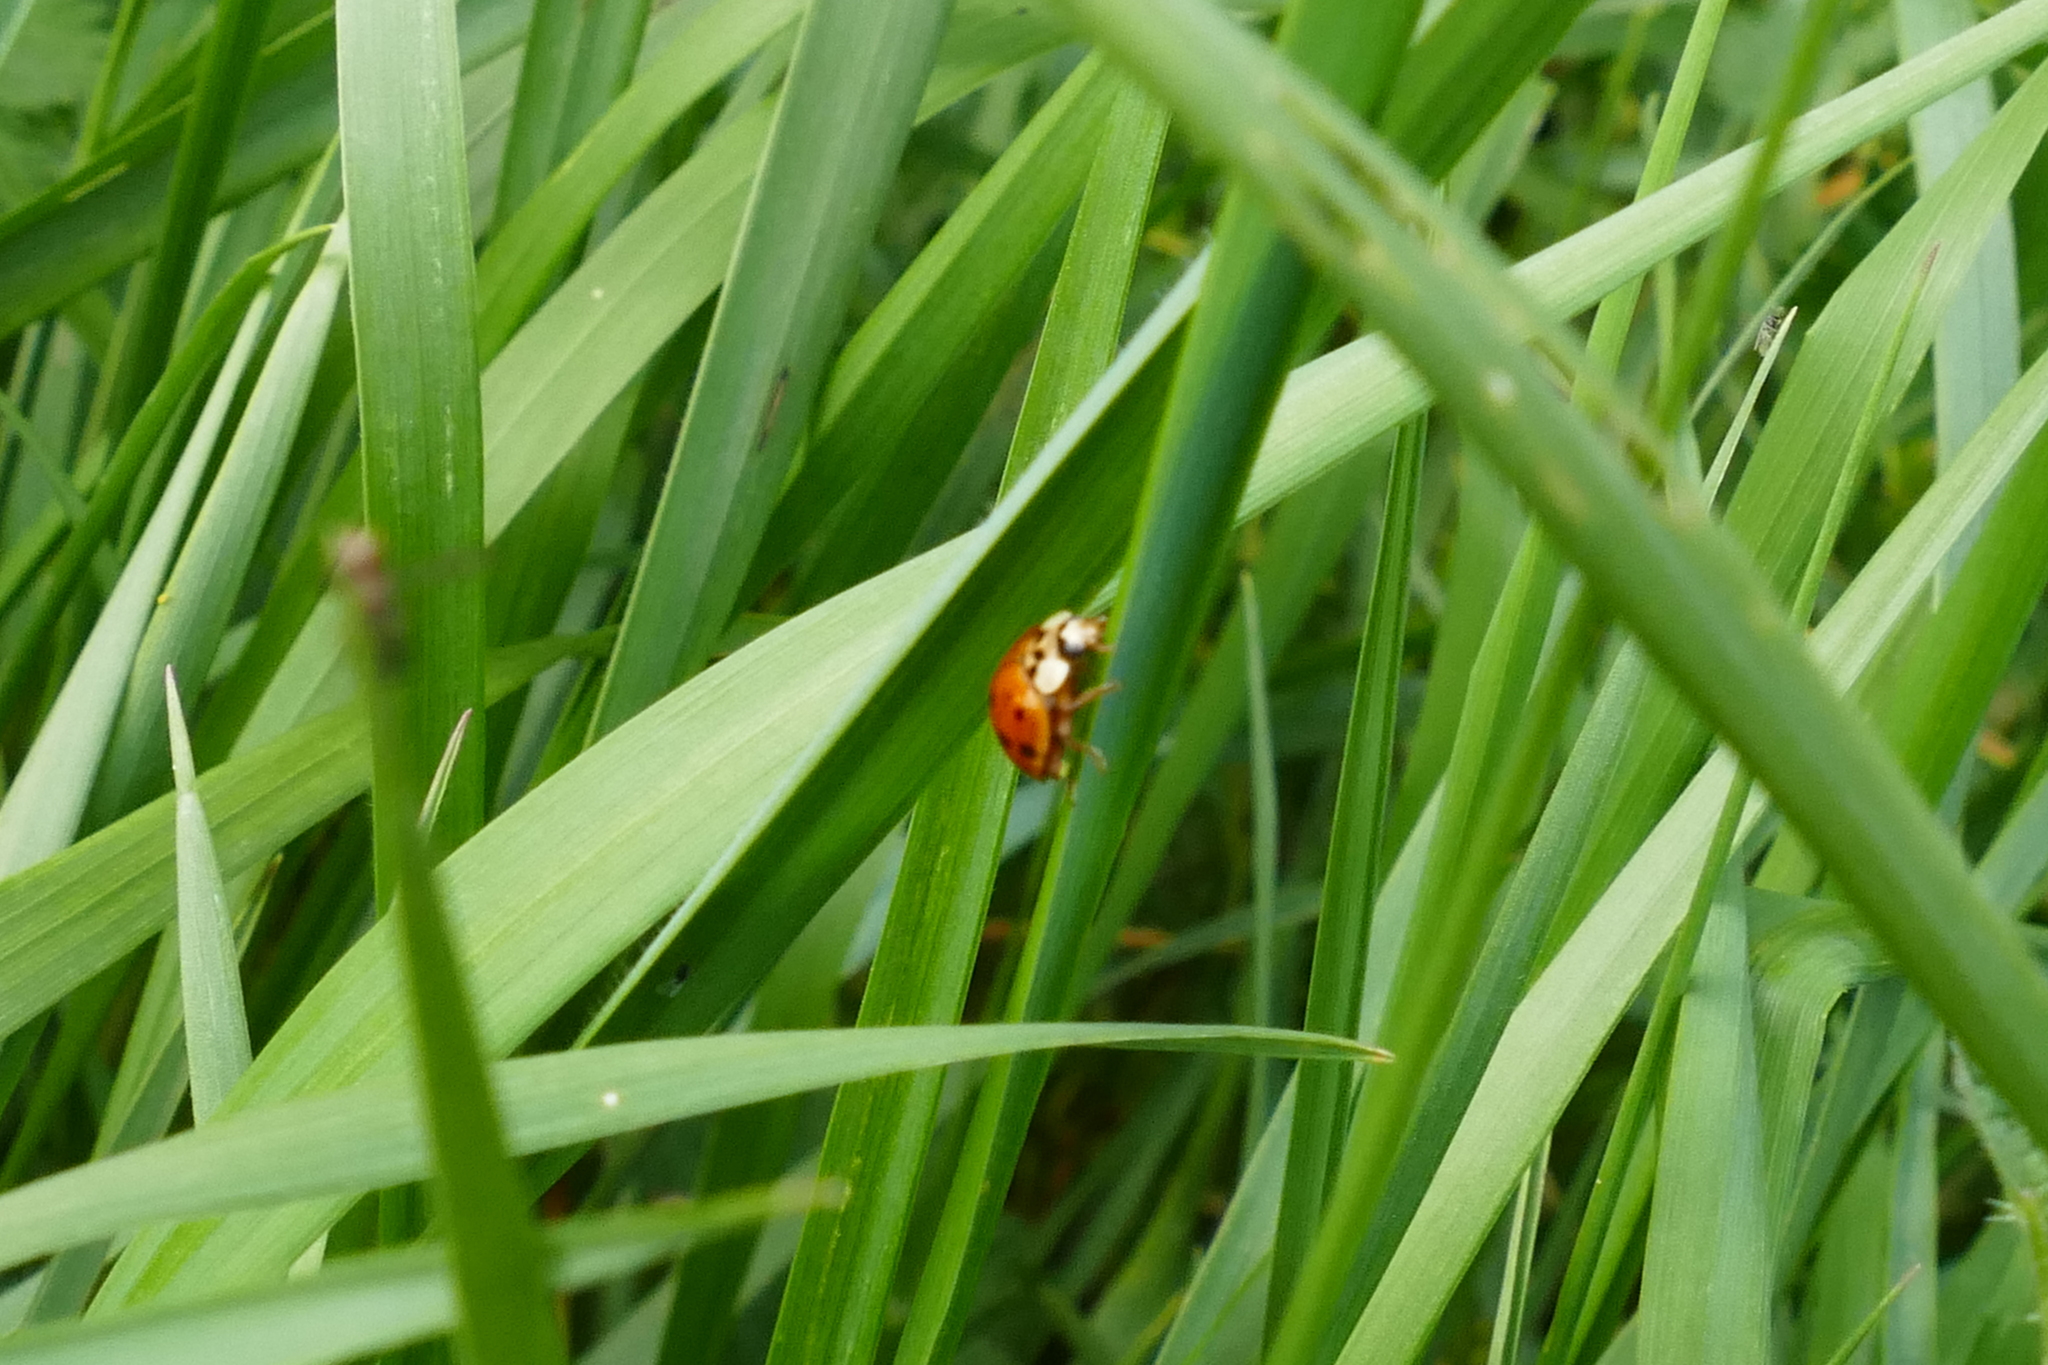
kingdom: Animalia
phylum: Arthropoda
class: Insecta
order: Coleoptera
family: Coccinellidae
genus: Harmonia
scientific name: Harmonia axyridis
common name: Harlequin ladybird
